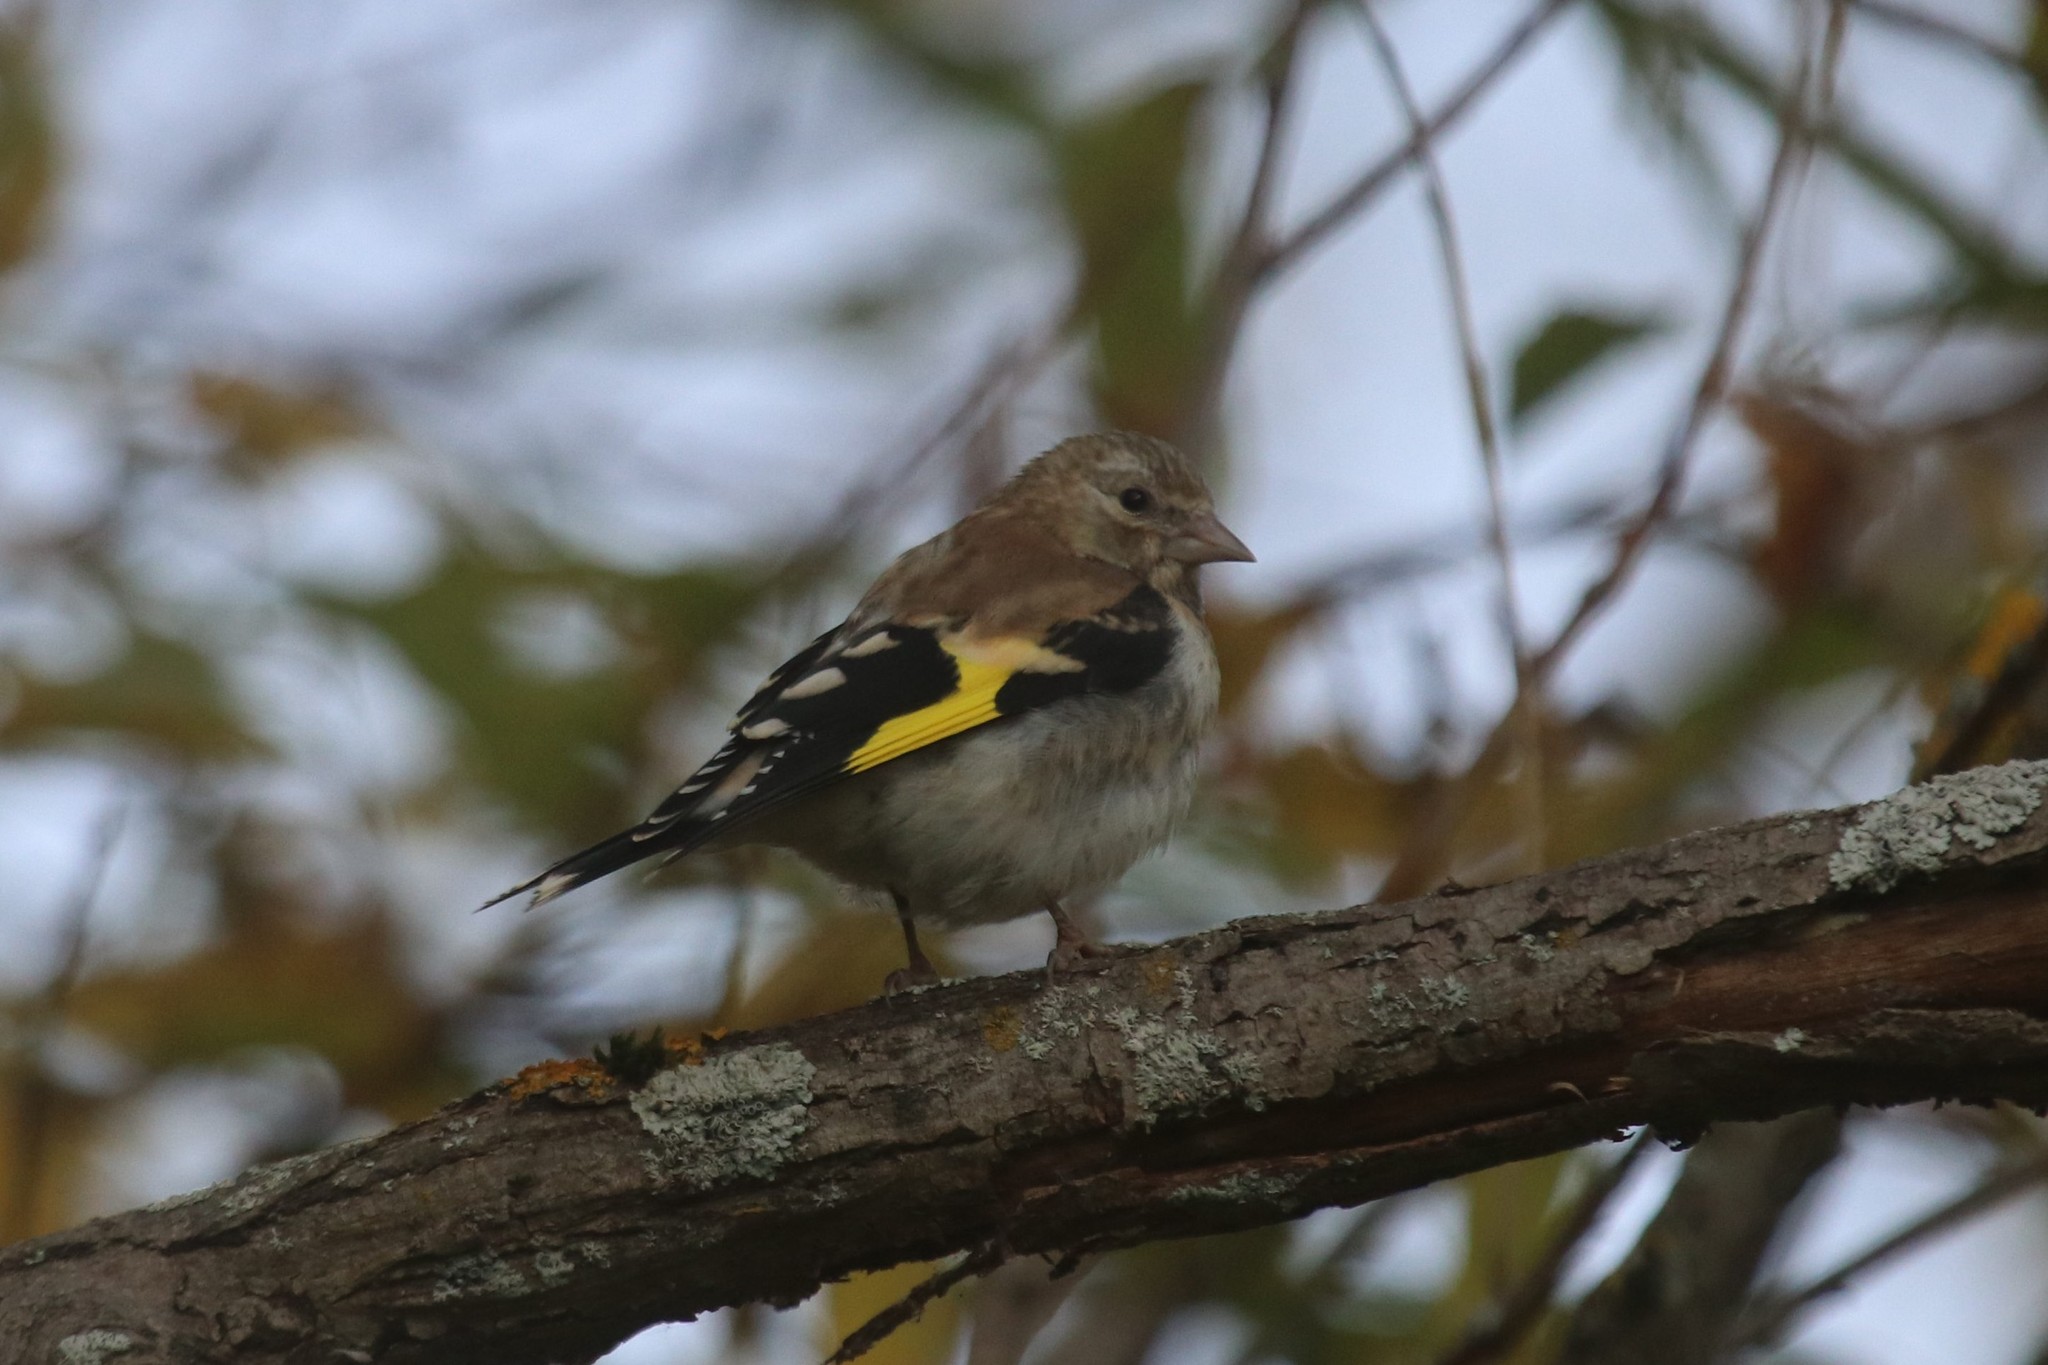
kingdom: Animalia
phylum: Chordata
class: Aves
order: Passeriformes
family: Fringillidae
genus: Carduelis
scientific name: Carduelis carduelis
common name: European goldfinch
